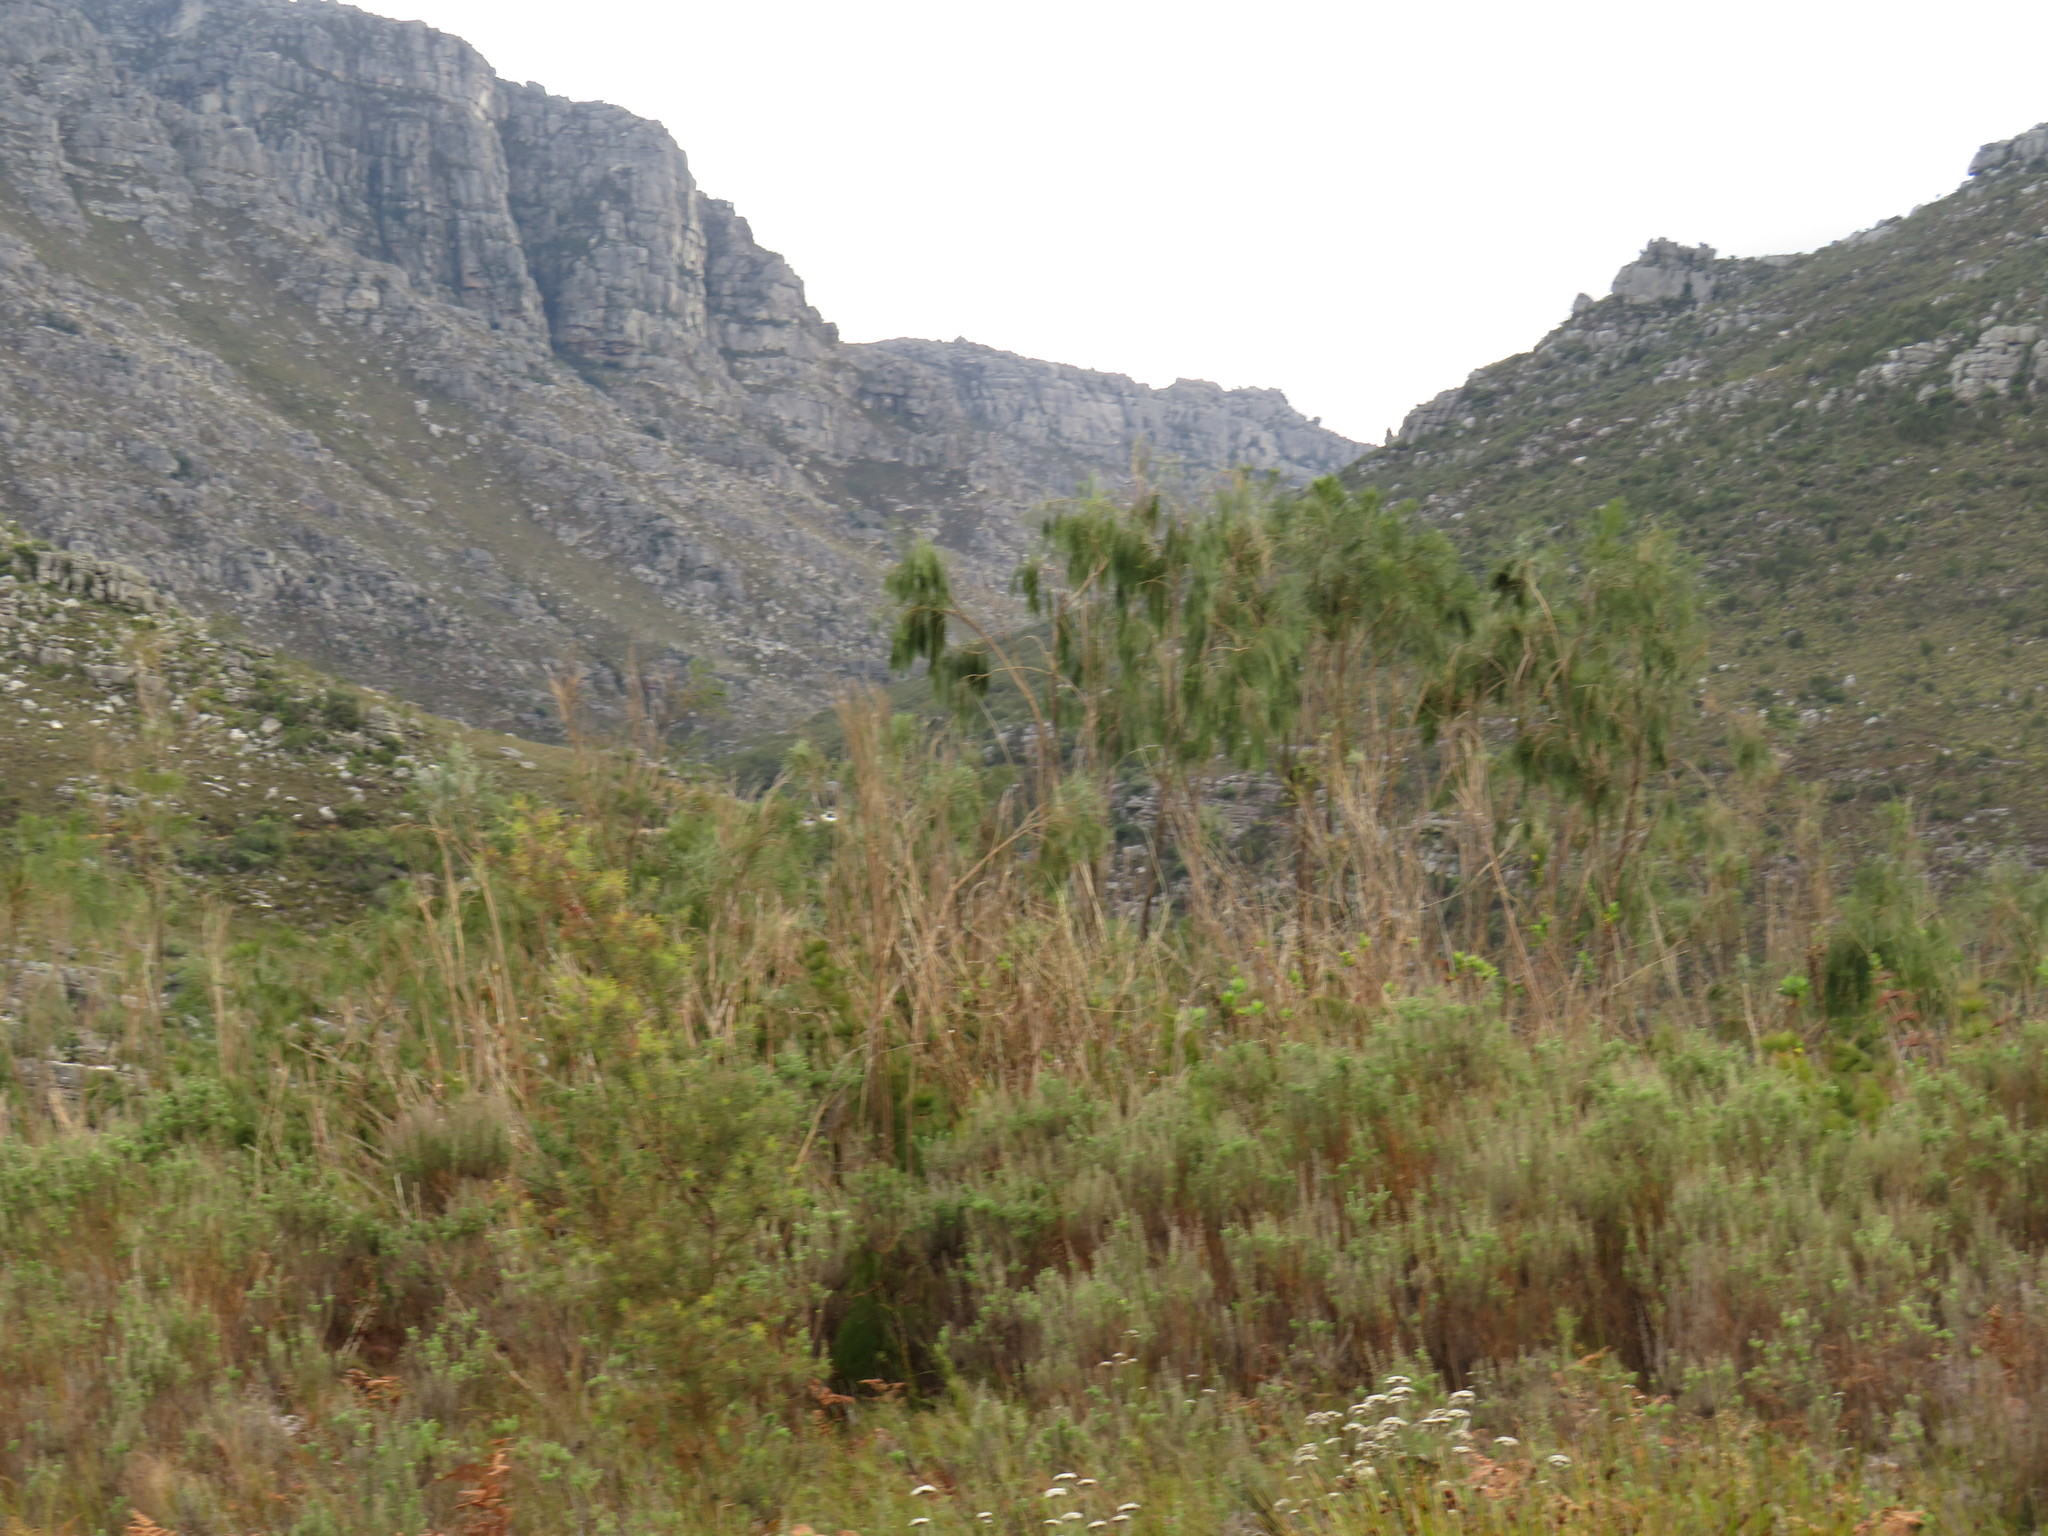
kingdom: Plantae
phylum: Tracheophyta
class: Magnoliopsida
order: Fabales
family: Fabaceae
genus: Psoralea
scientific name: Psoralea fleta
